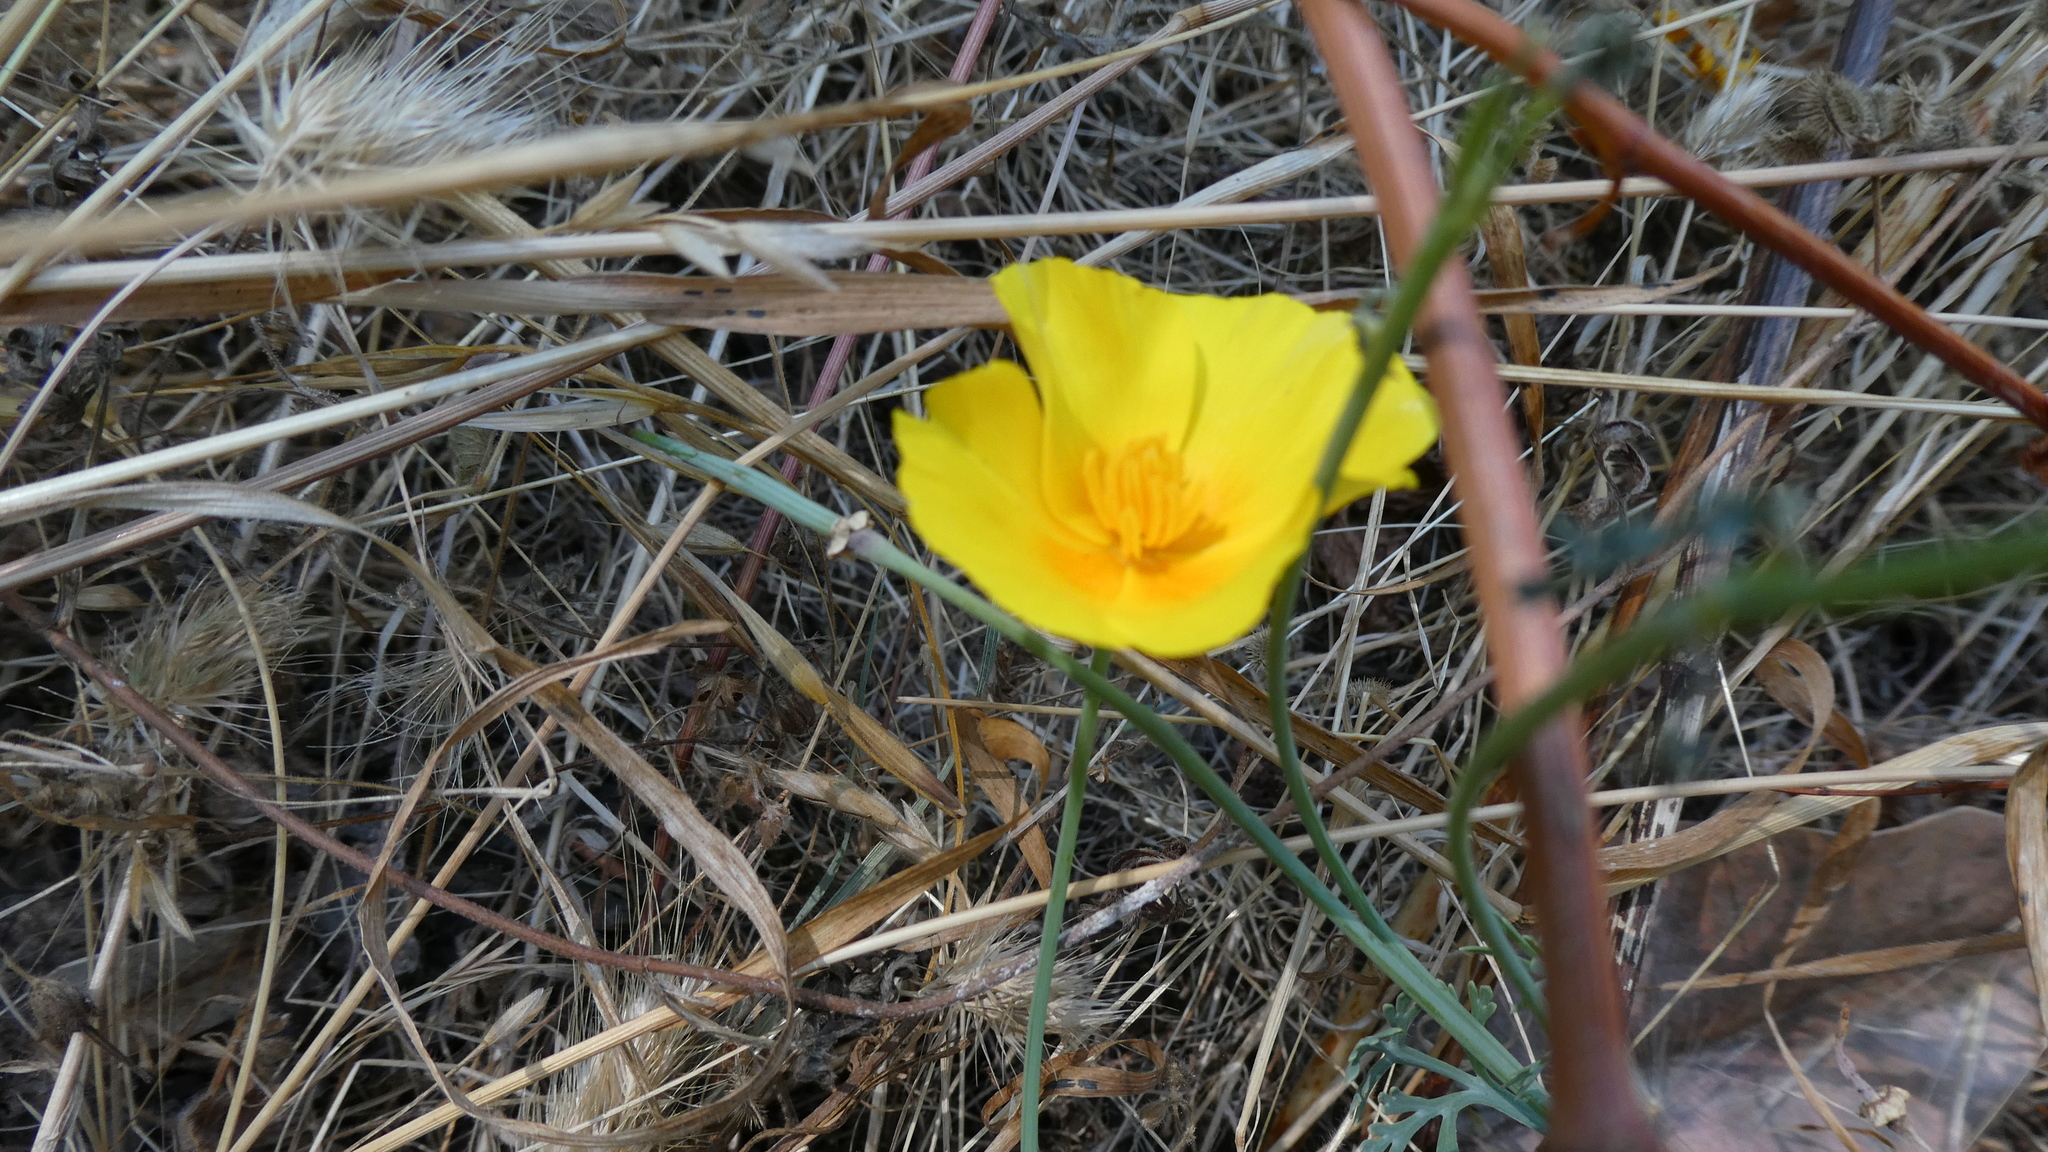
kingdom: Plantae
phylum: Tracheophyta
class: Magnoliopsida
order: Ranunculales
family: Papaveraceae
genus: Eschscholzia
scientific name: Eschscholzia californica
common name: California poppy
